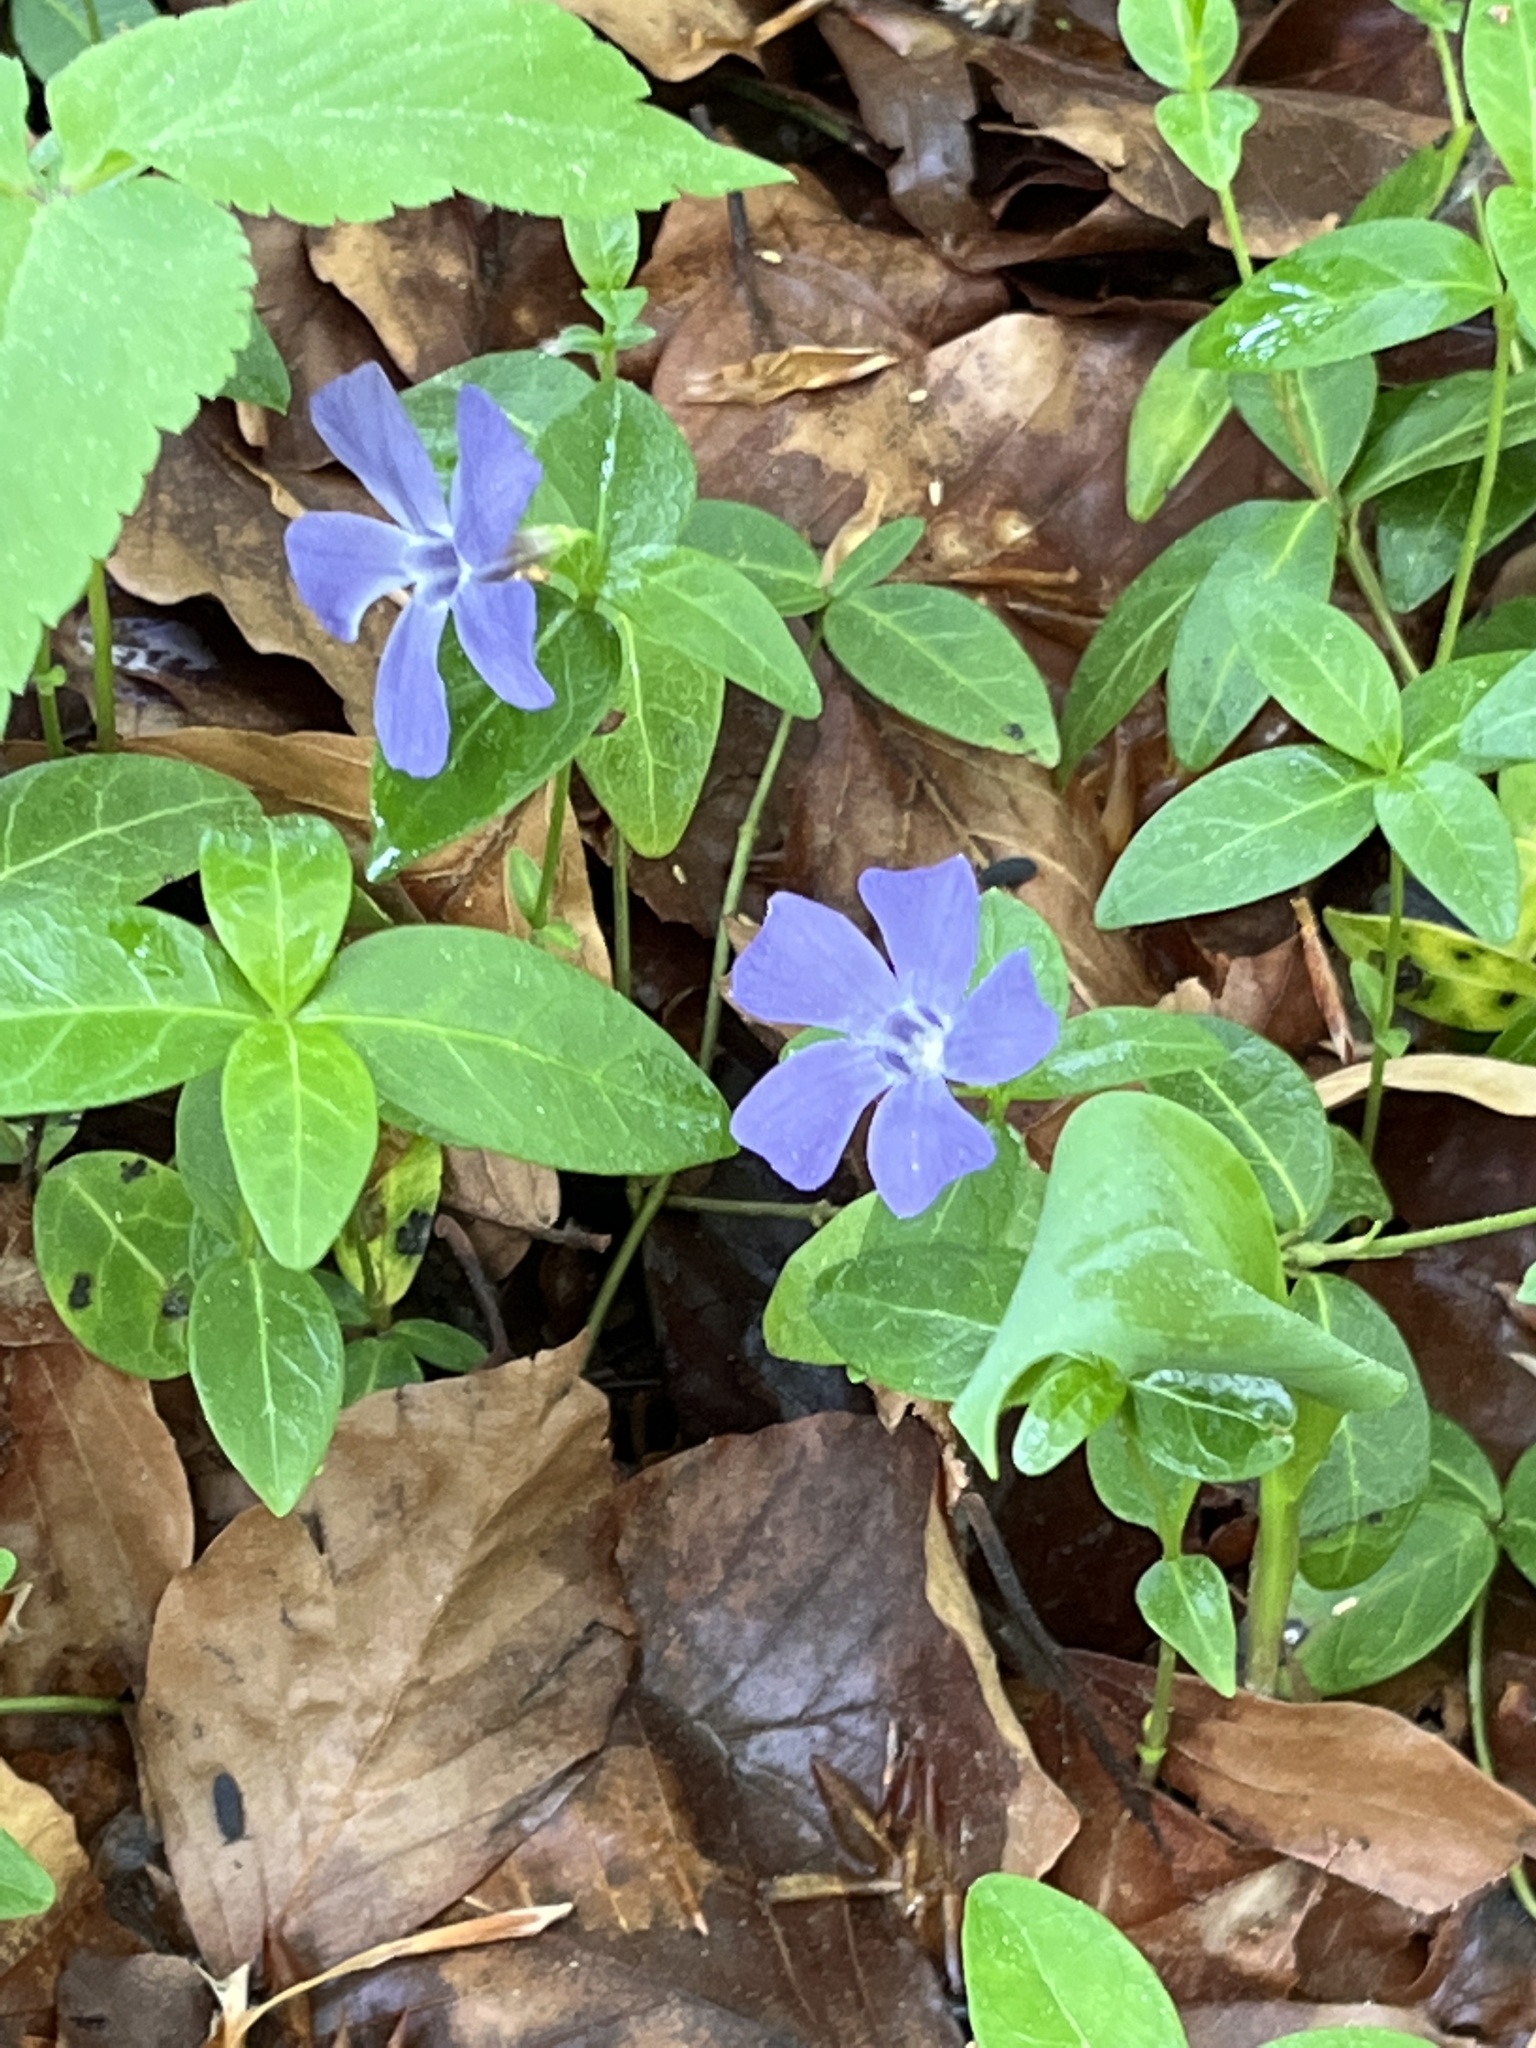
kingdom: Plantae
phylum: Tracheophyta
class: Magnoliopsida
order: Gentianales
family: Apocynaceae
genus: Vinca
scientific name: Vinca minor
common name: Lesser periwinkle
